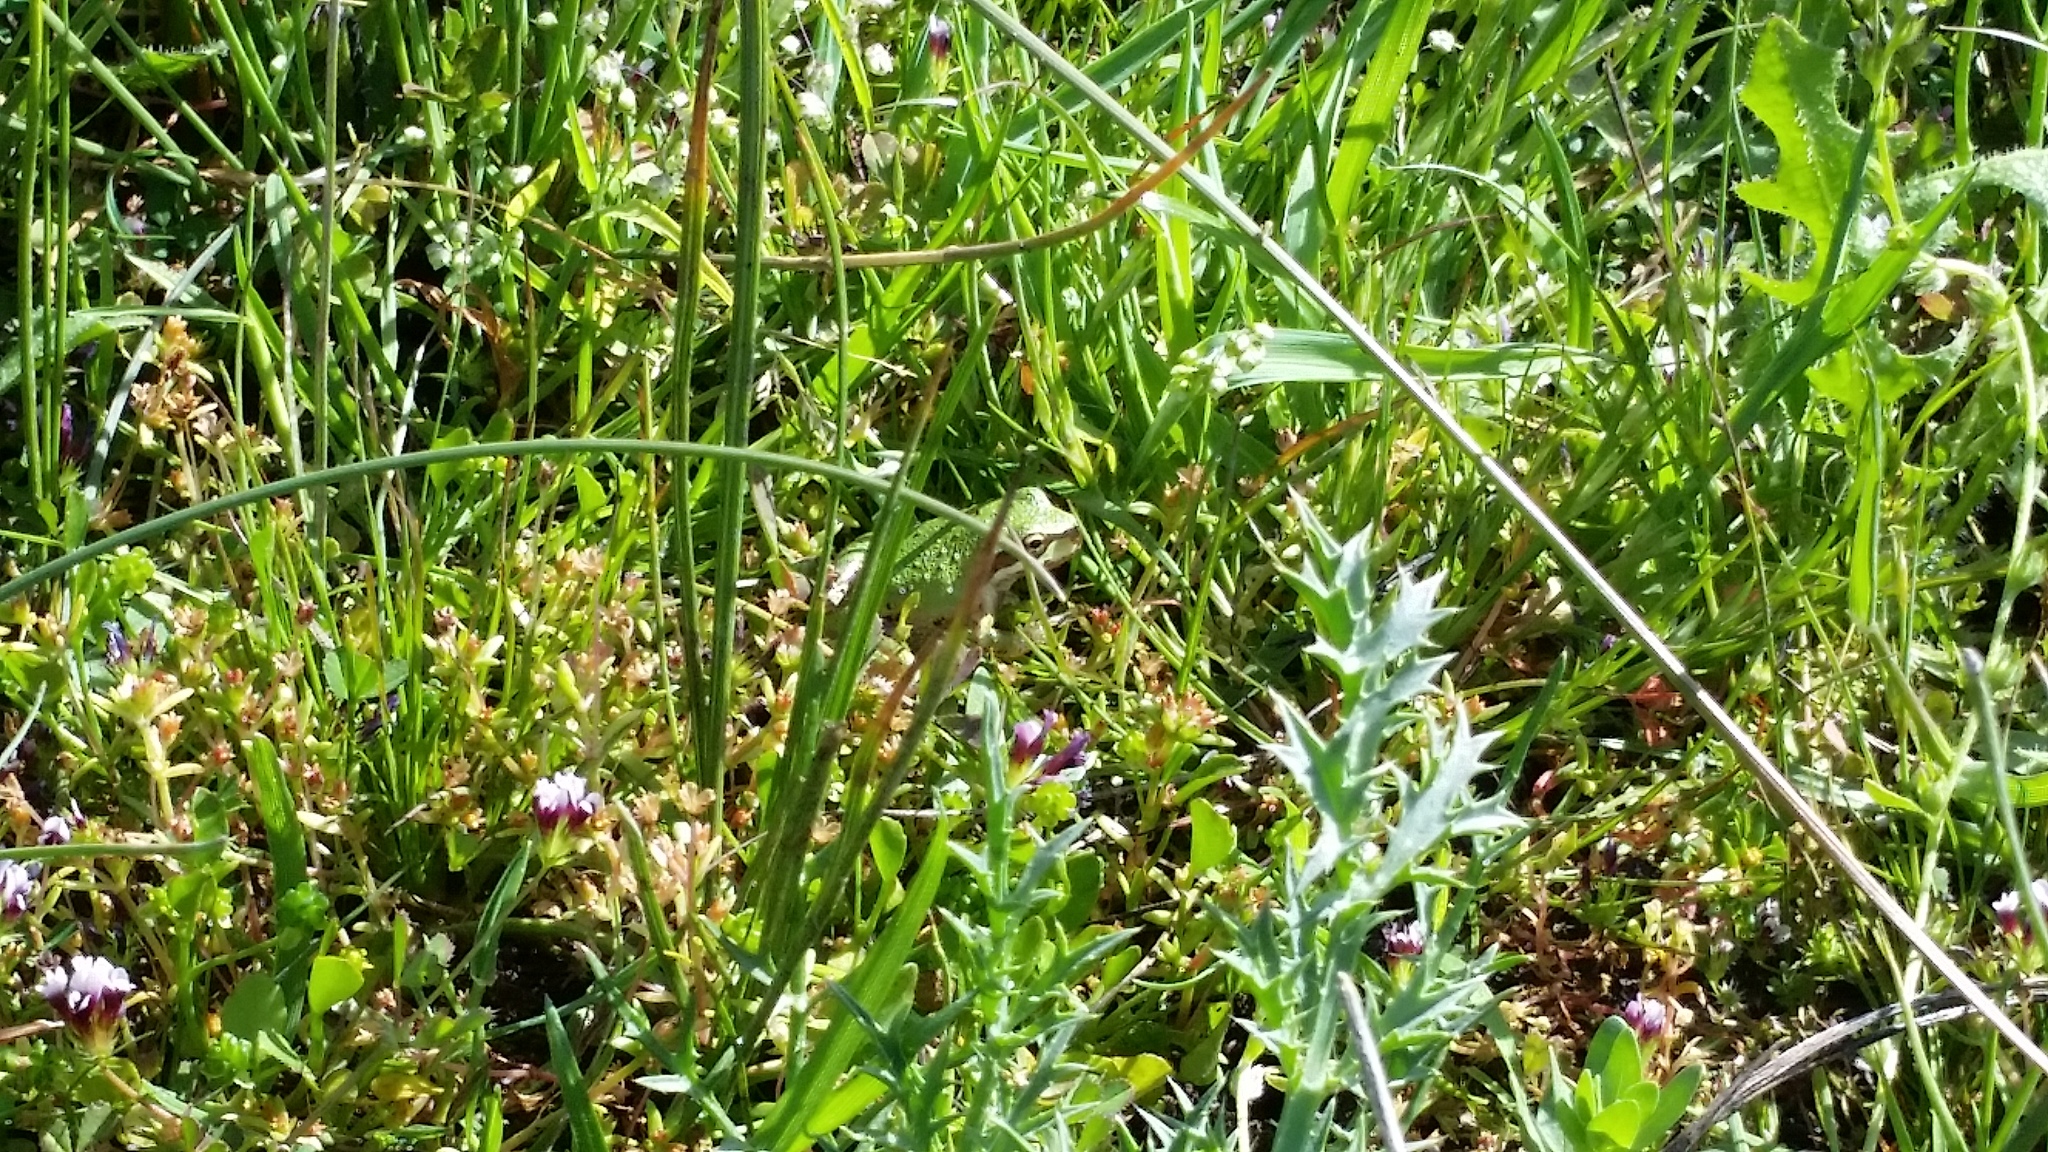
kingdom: Animalia
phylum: Chordata
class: Amphibia
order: Anura
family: Hylidae
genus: Pseudacris
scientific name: Pseudacris regilla
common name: Pacific chorus frog
